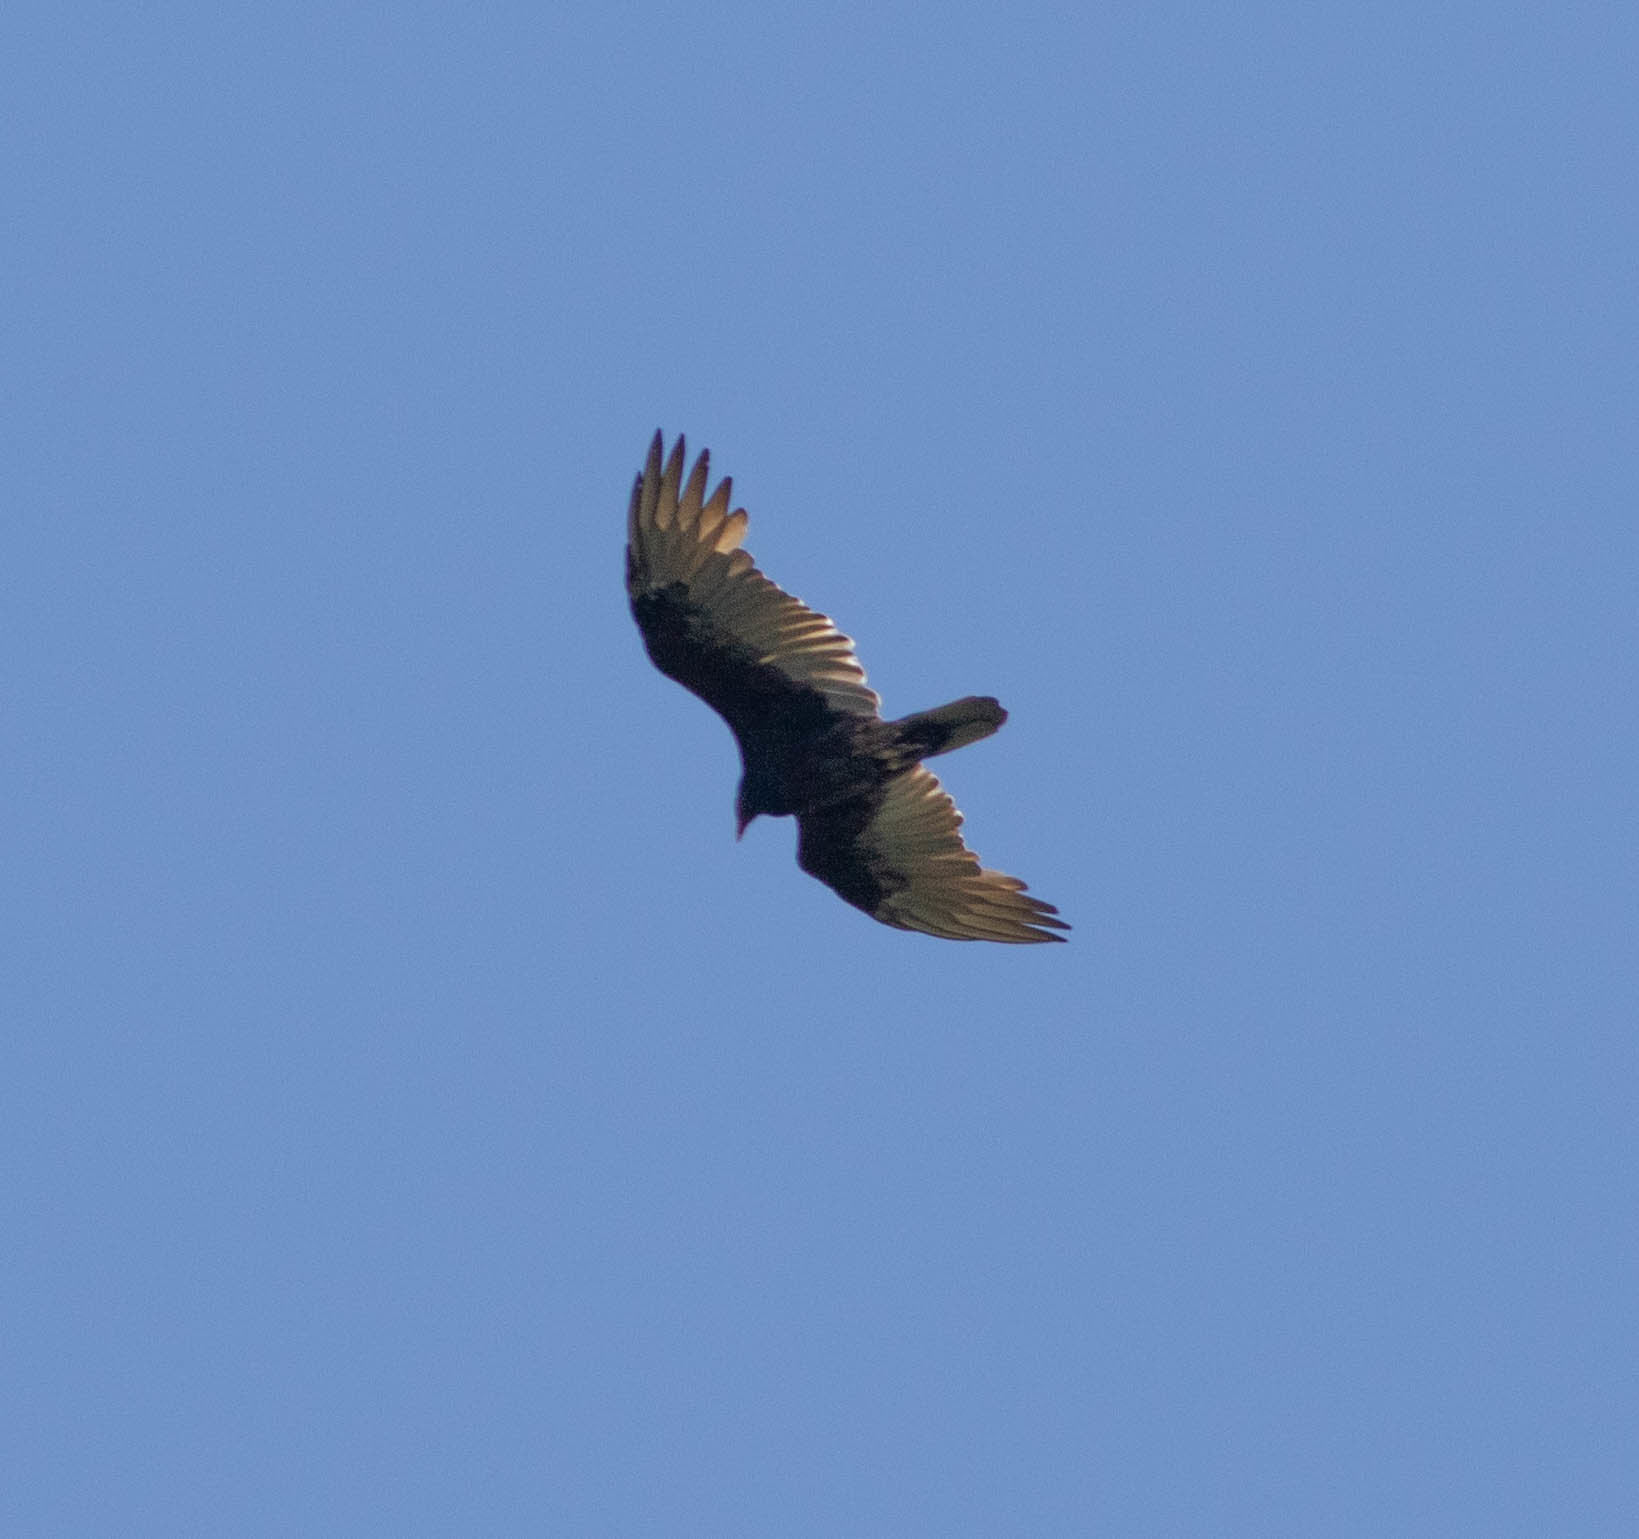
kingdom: Animalia
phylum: Chordata
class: Aves
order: Accipitriformes
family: Cathartidae
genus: Cathartes
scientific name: Cathartes aura
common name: Turkey vulture
